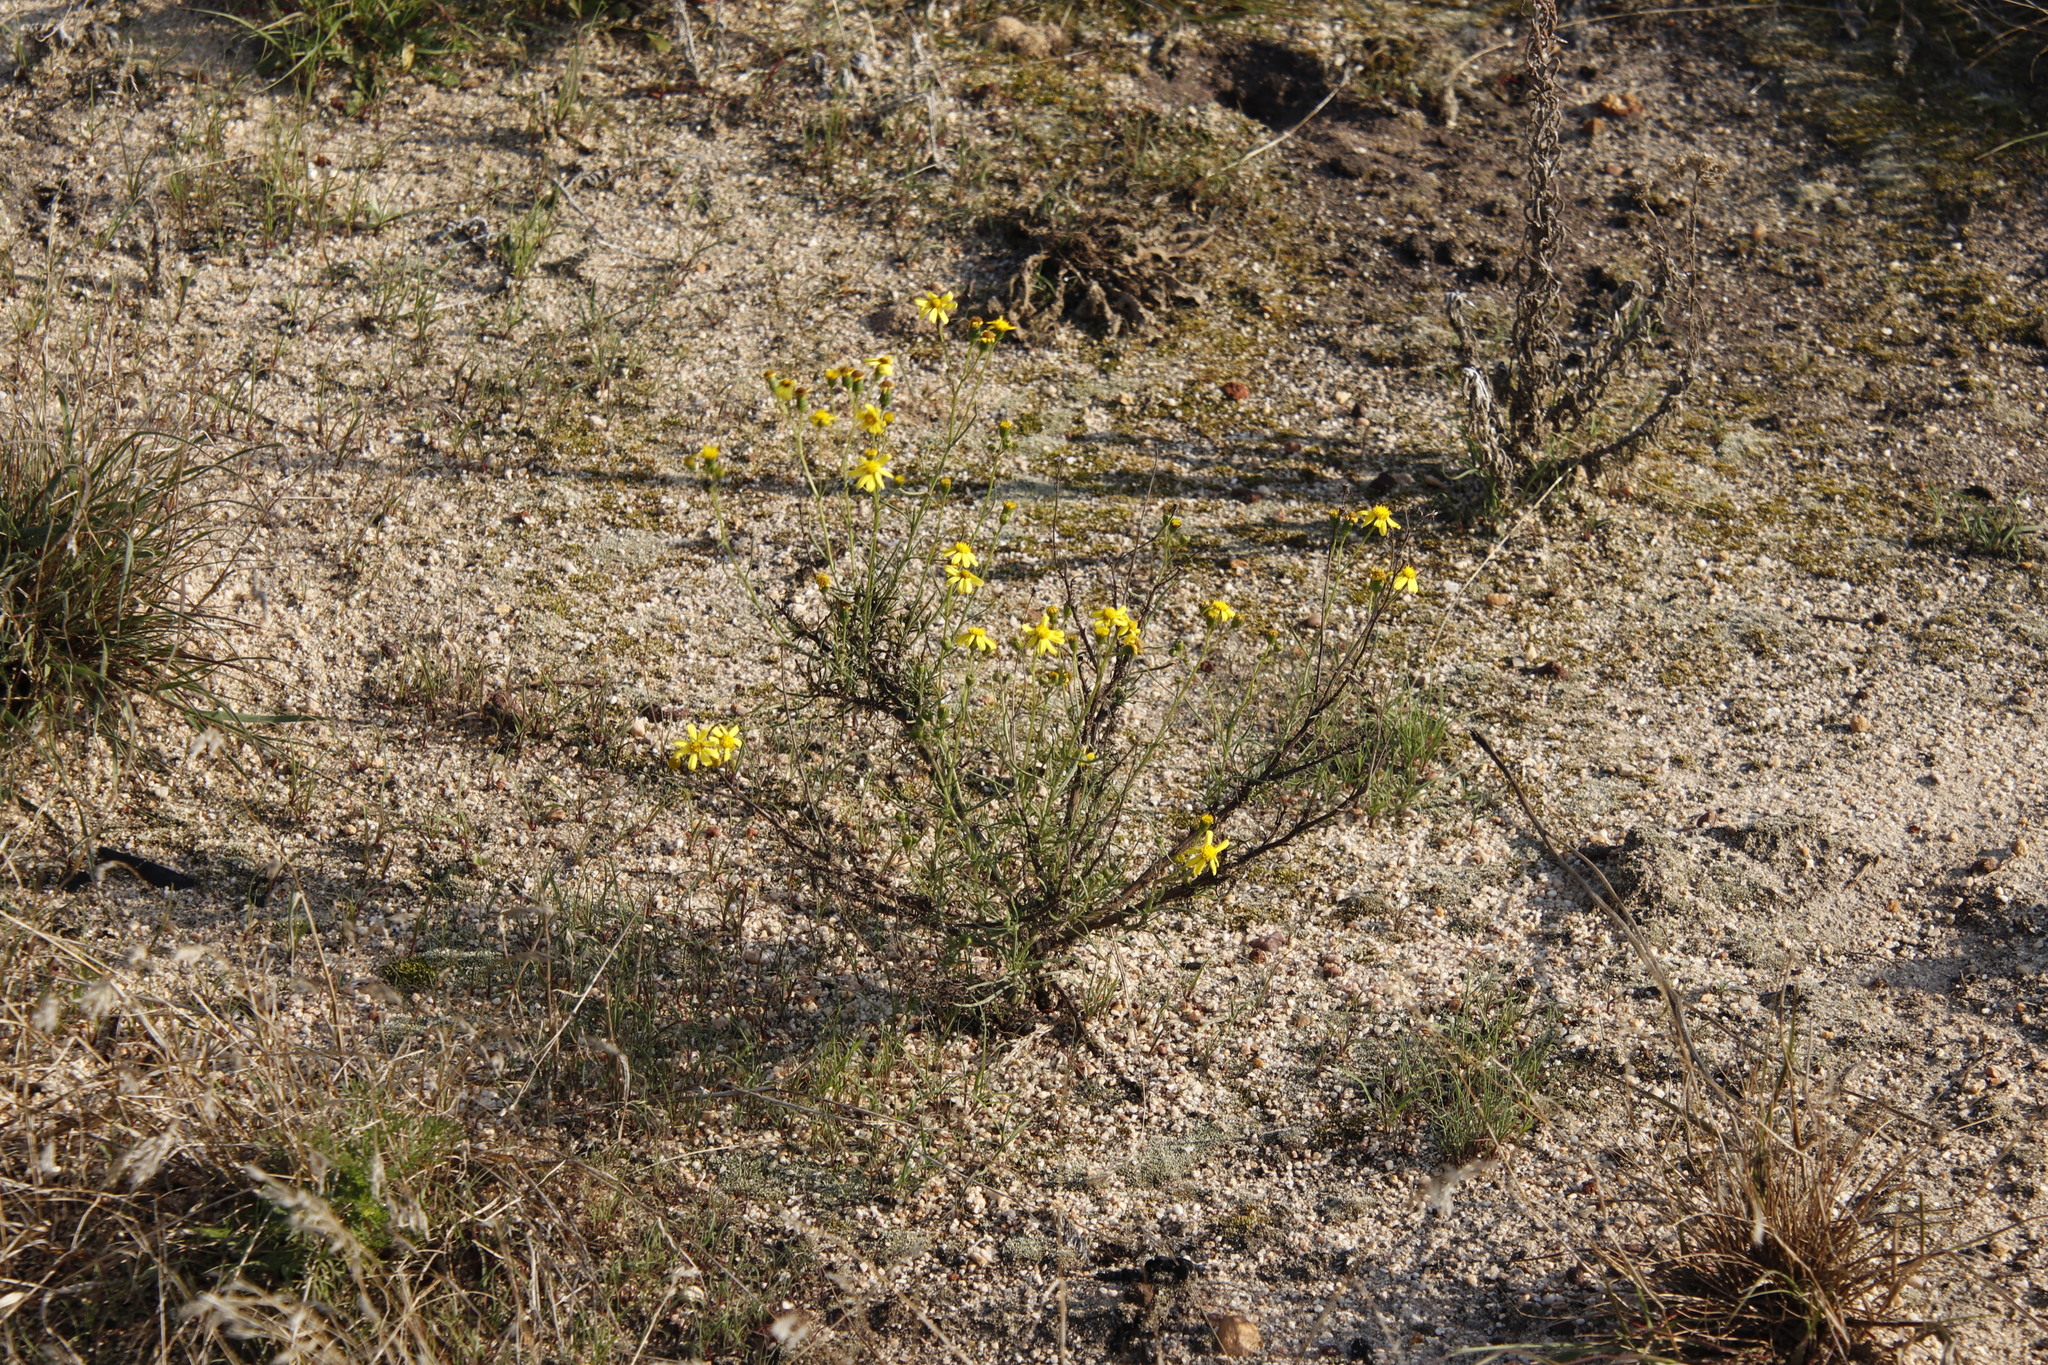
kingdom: Plantae
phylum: Tracheophyta
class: Magnoliopsida
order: Asterales
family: Asteraceae
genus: Senecio
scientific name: Senecio burchellii
